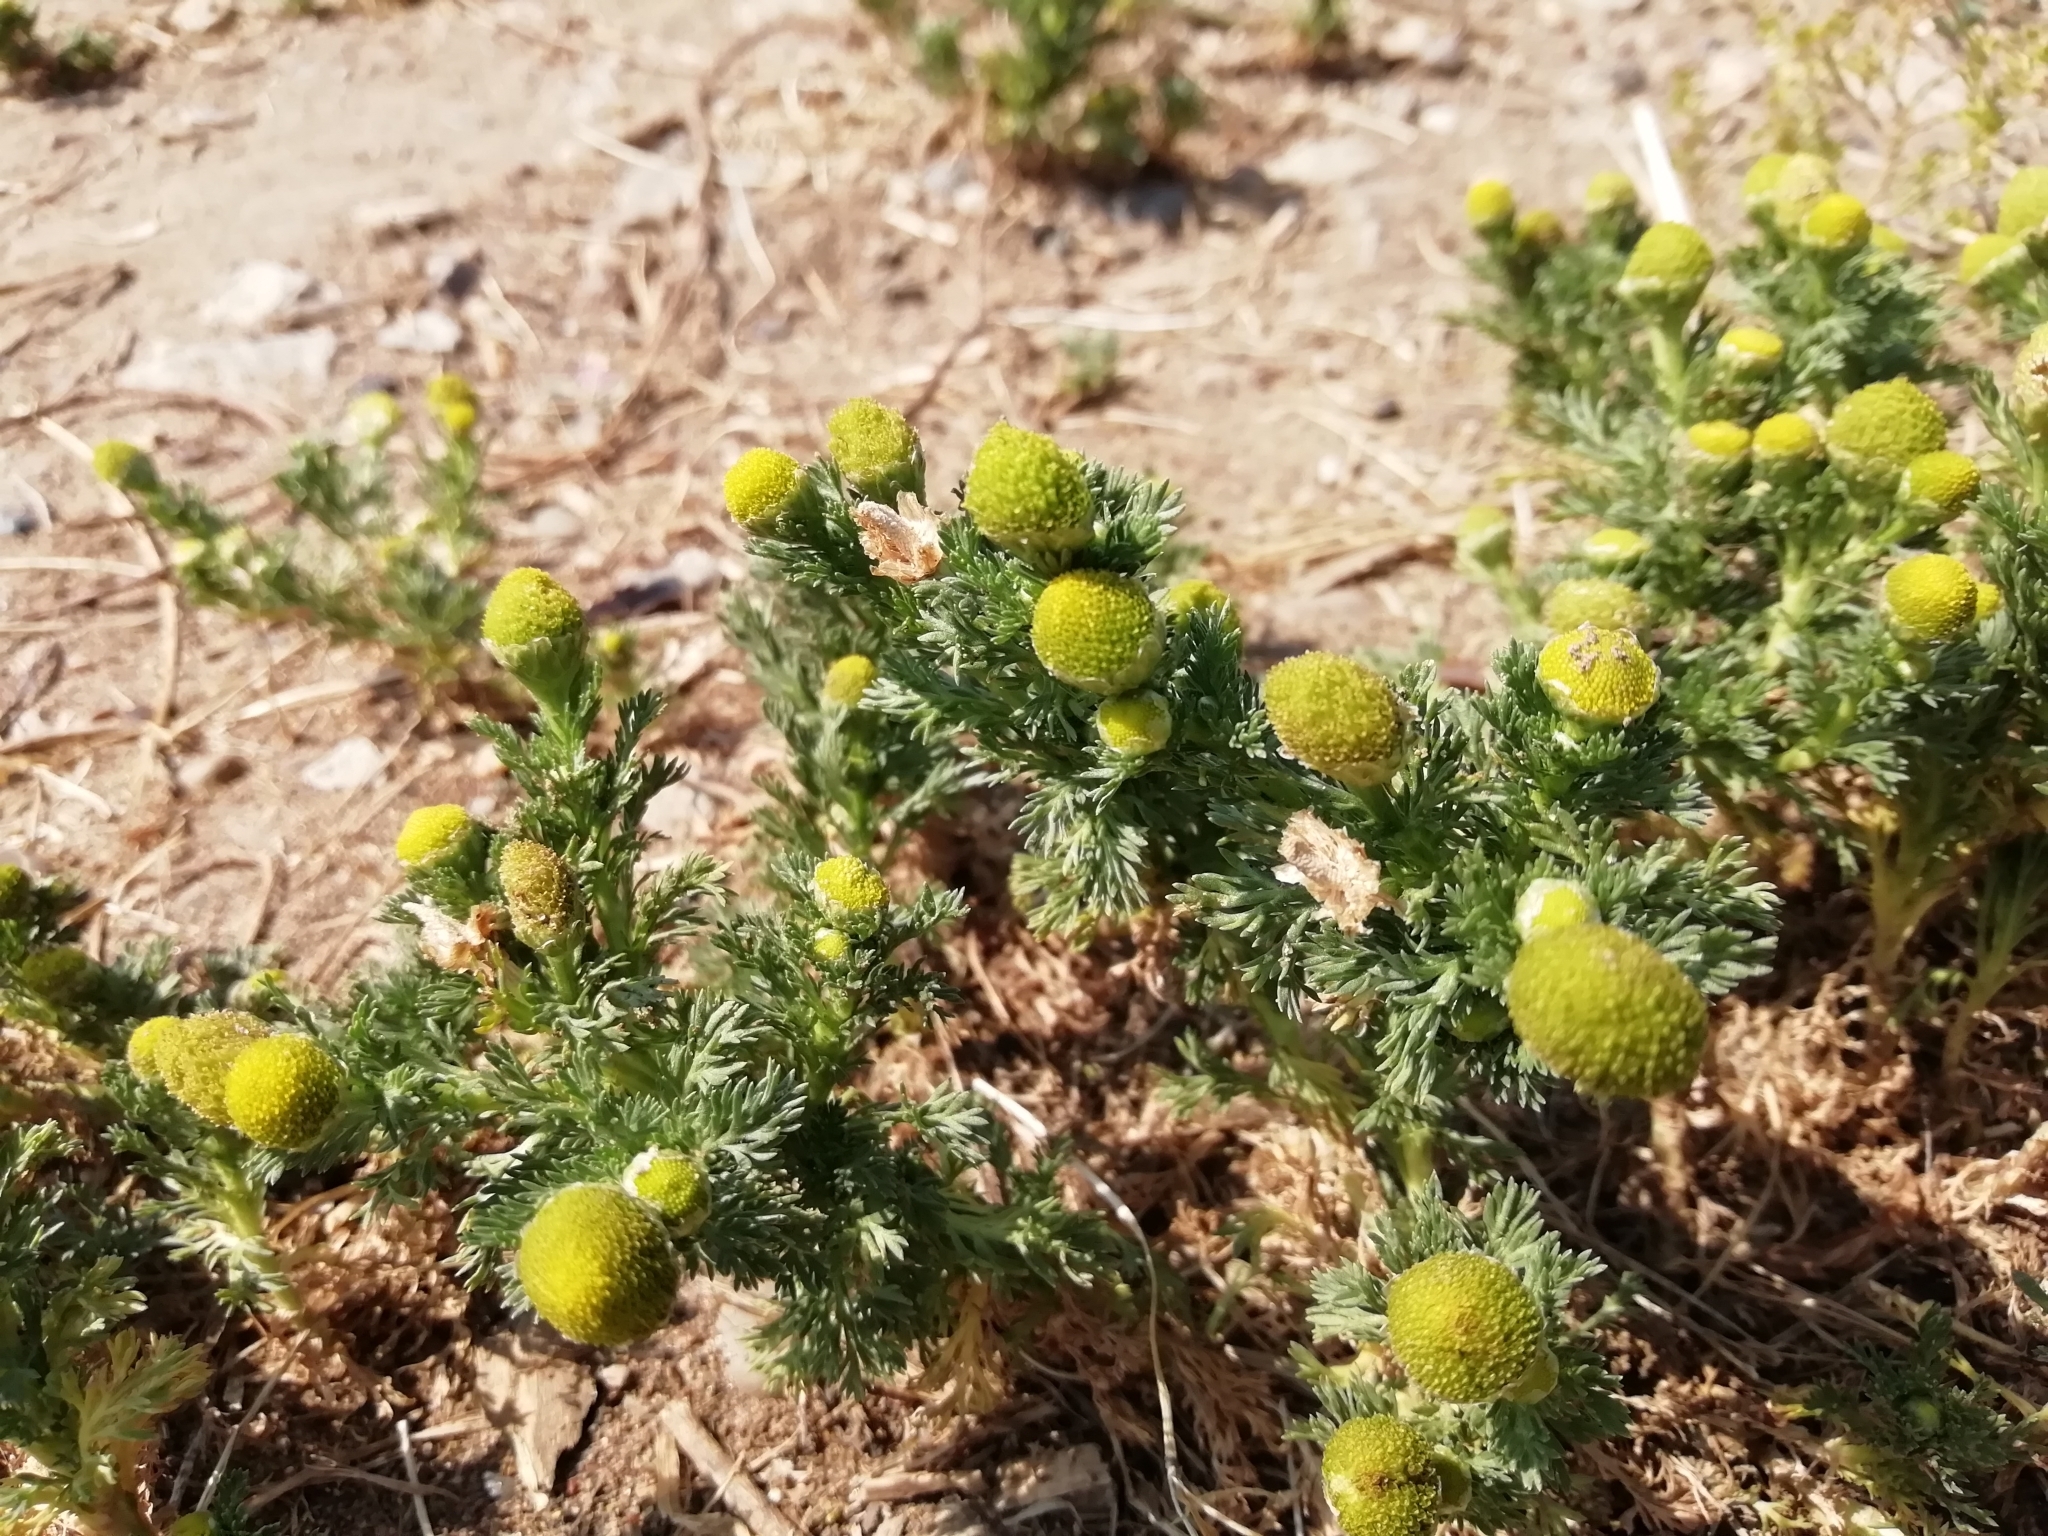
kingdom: Plantae
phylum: Tracheophyta
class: Magnoliopsida
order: Asterales
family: Asteraceae
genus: Matricaria
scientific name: Matricaria discoidea
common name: Disc mayweed
